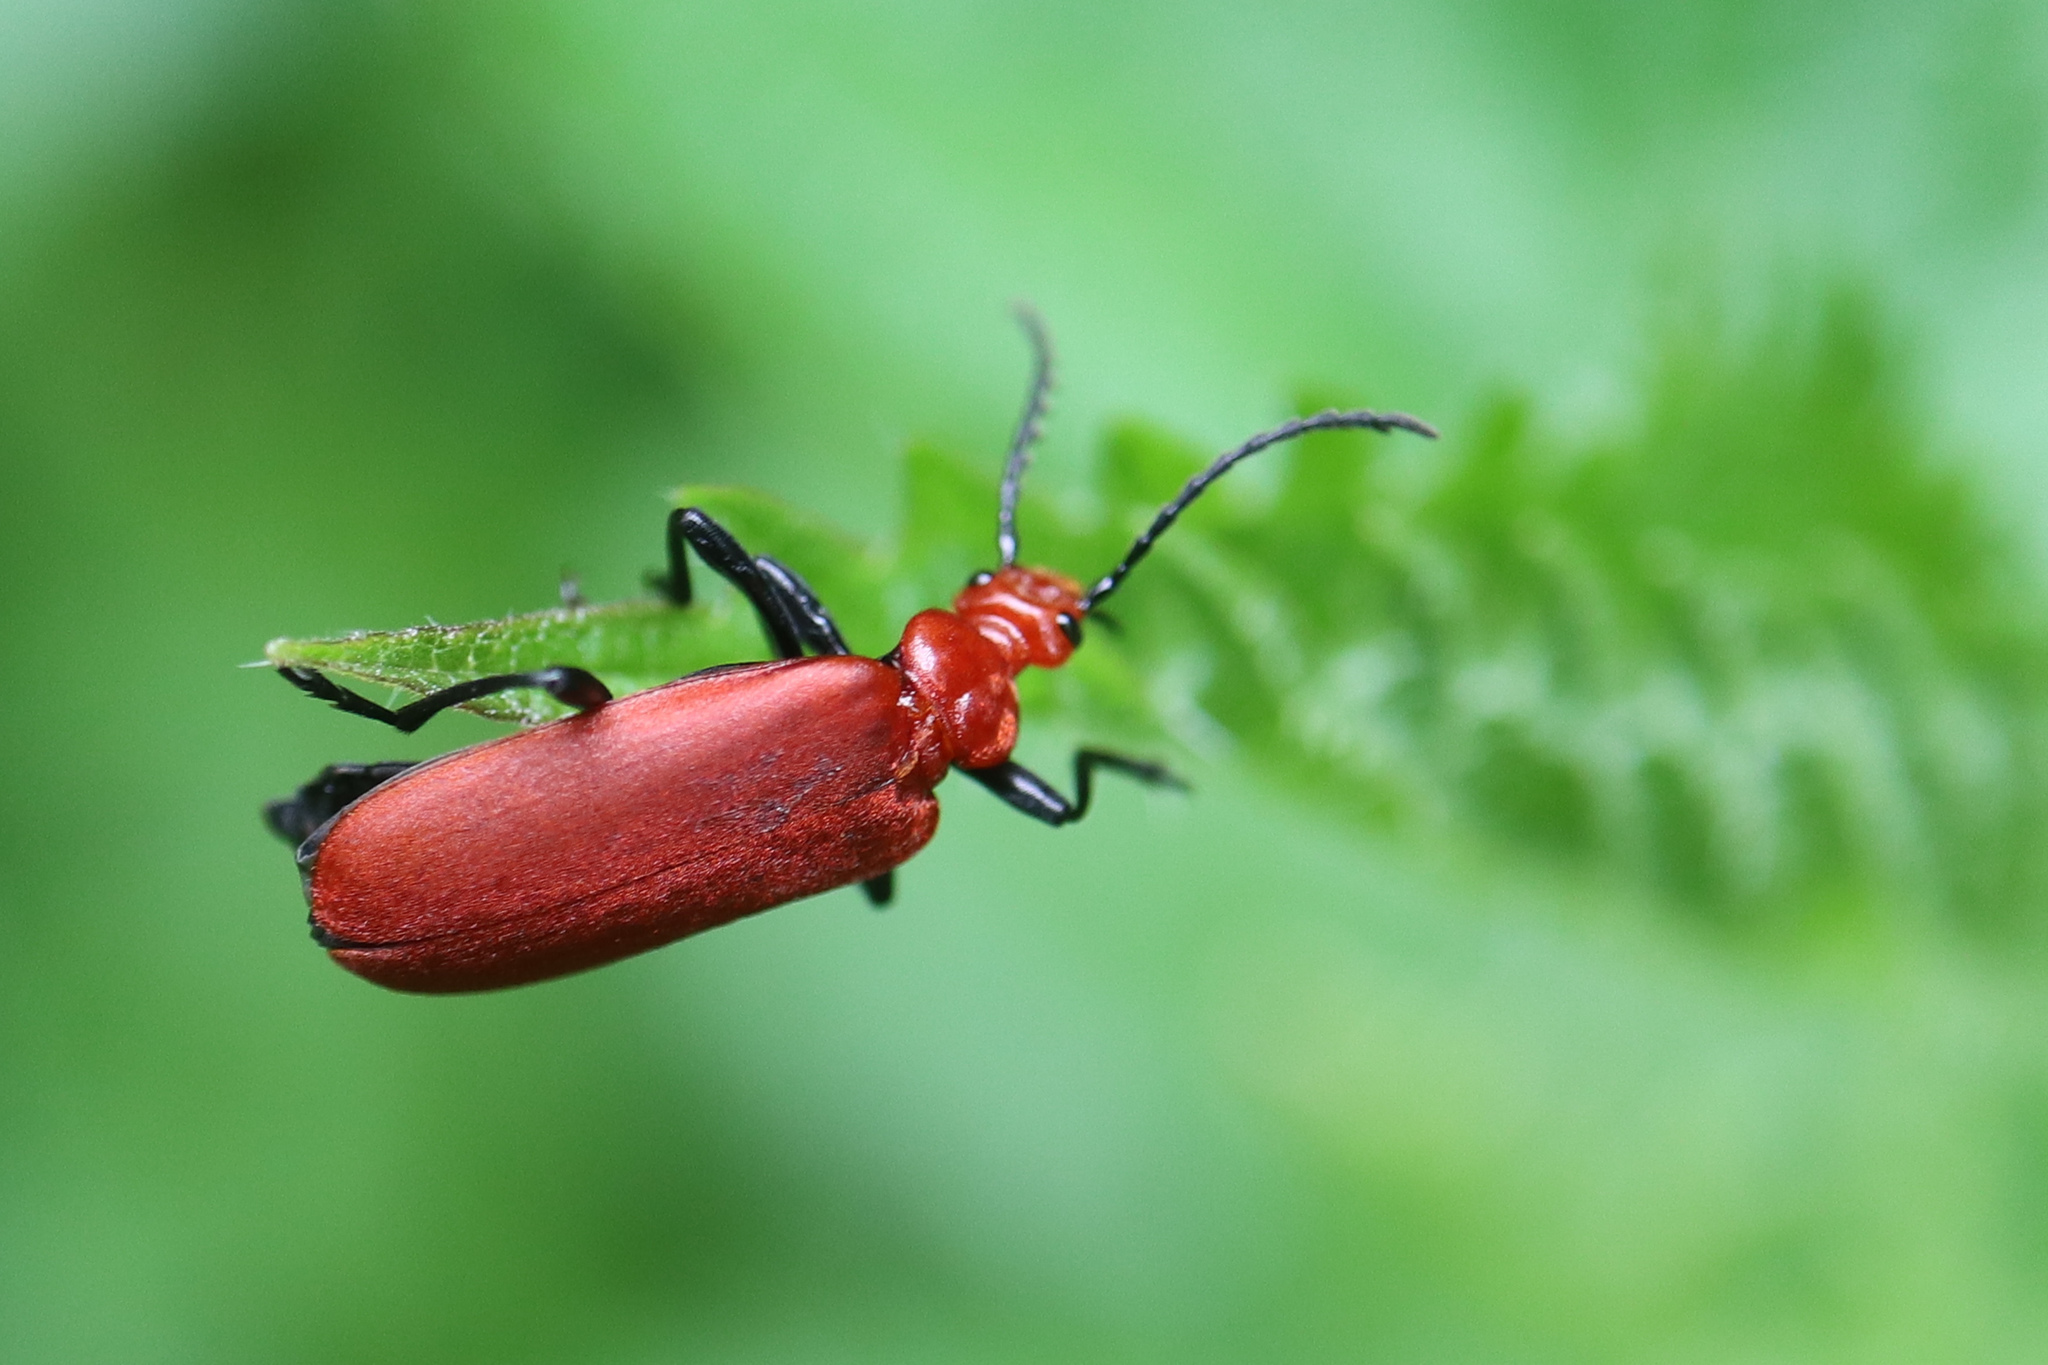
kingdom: Animalia
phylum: Arthropoda
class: Insecta
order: Coleoptera
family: Pyrochroidae
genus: Pyrochroa
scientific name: Pyrochroa serraticornis
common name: Red-headed cardinal beetle
